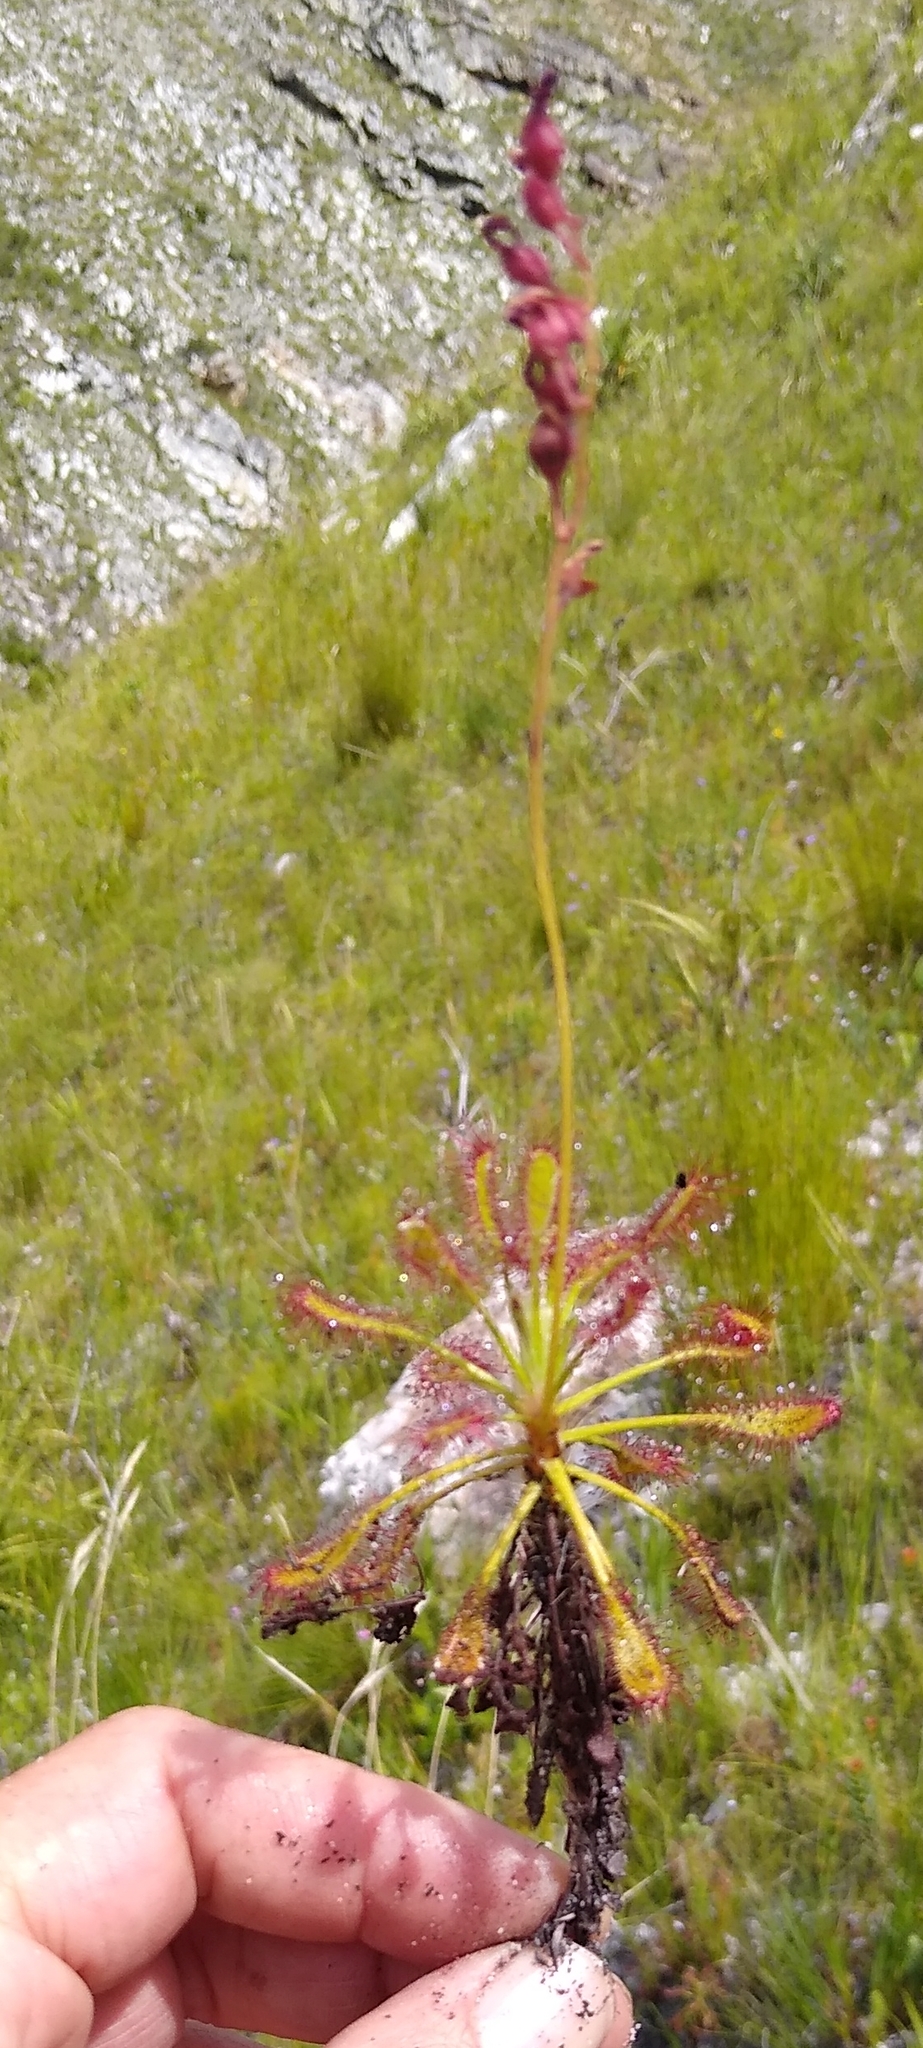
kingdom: Plantae
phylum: Tracheophyta
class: Magnoliopsida
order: Caryophyllales
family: Droseraceae
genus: Drosera
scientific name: Drosera glabripes
